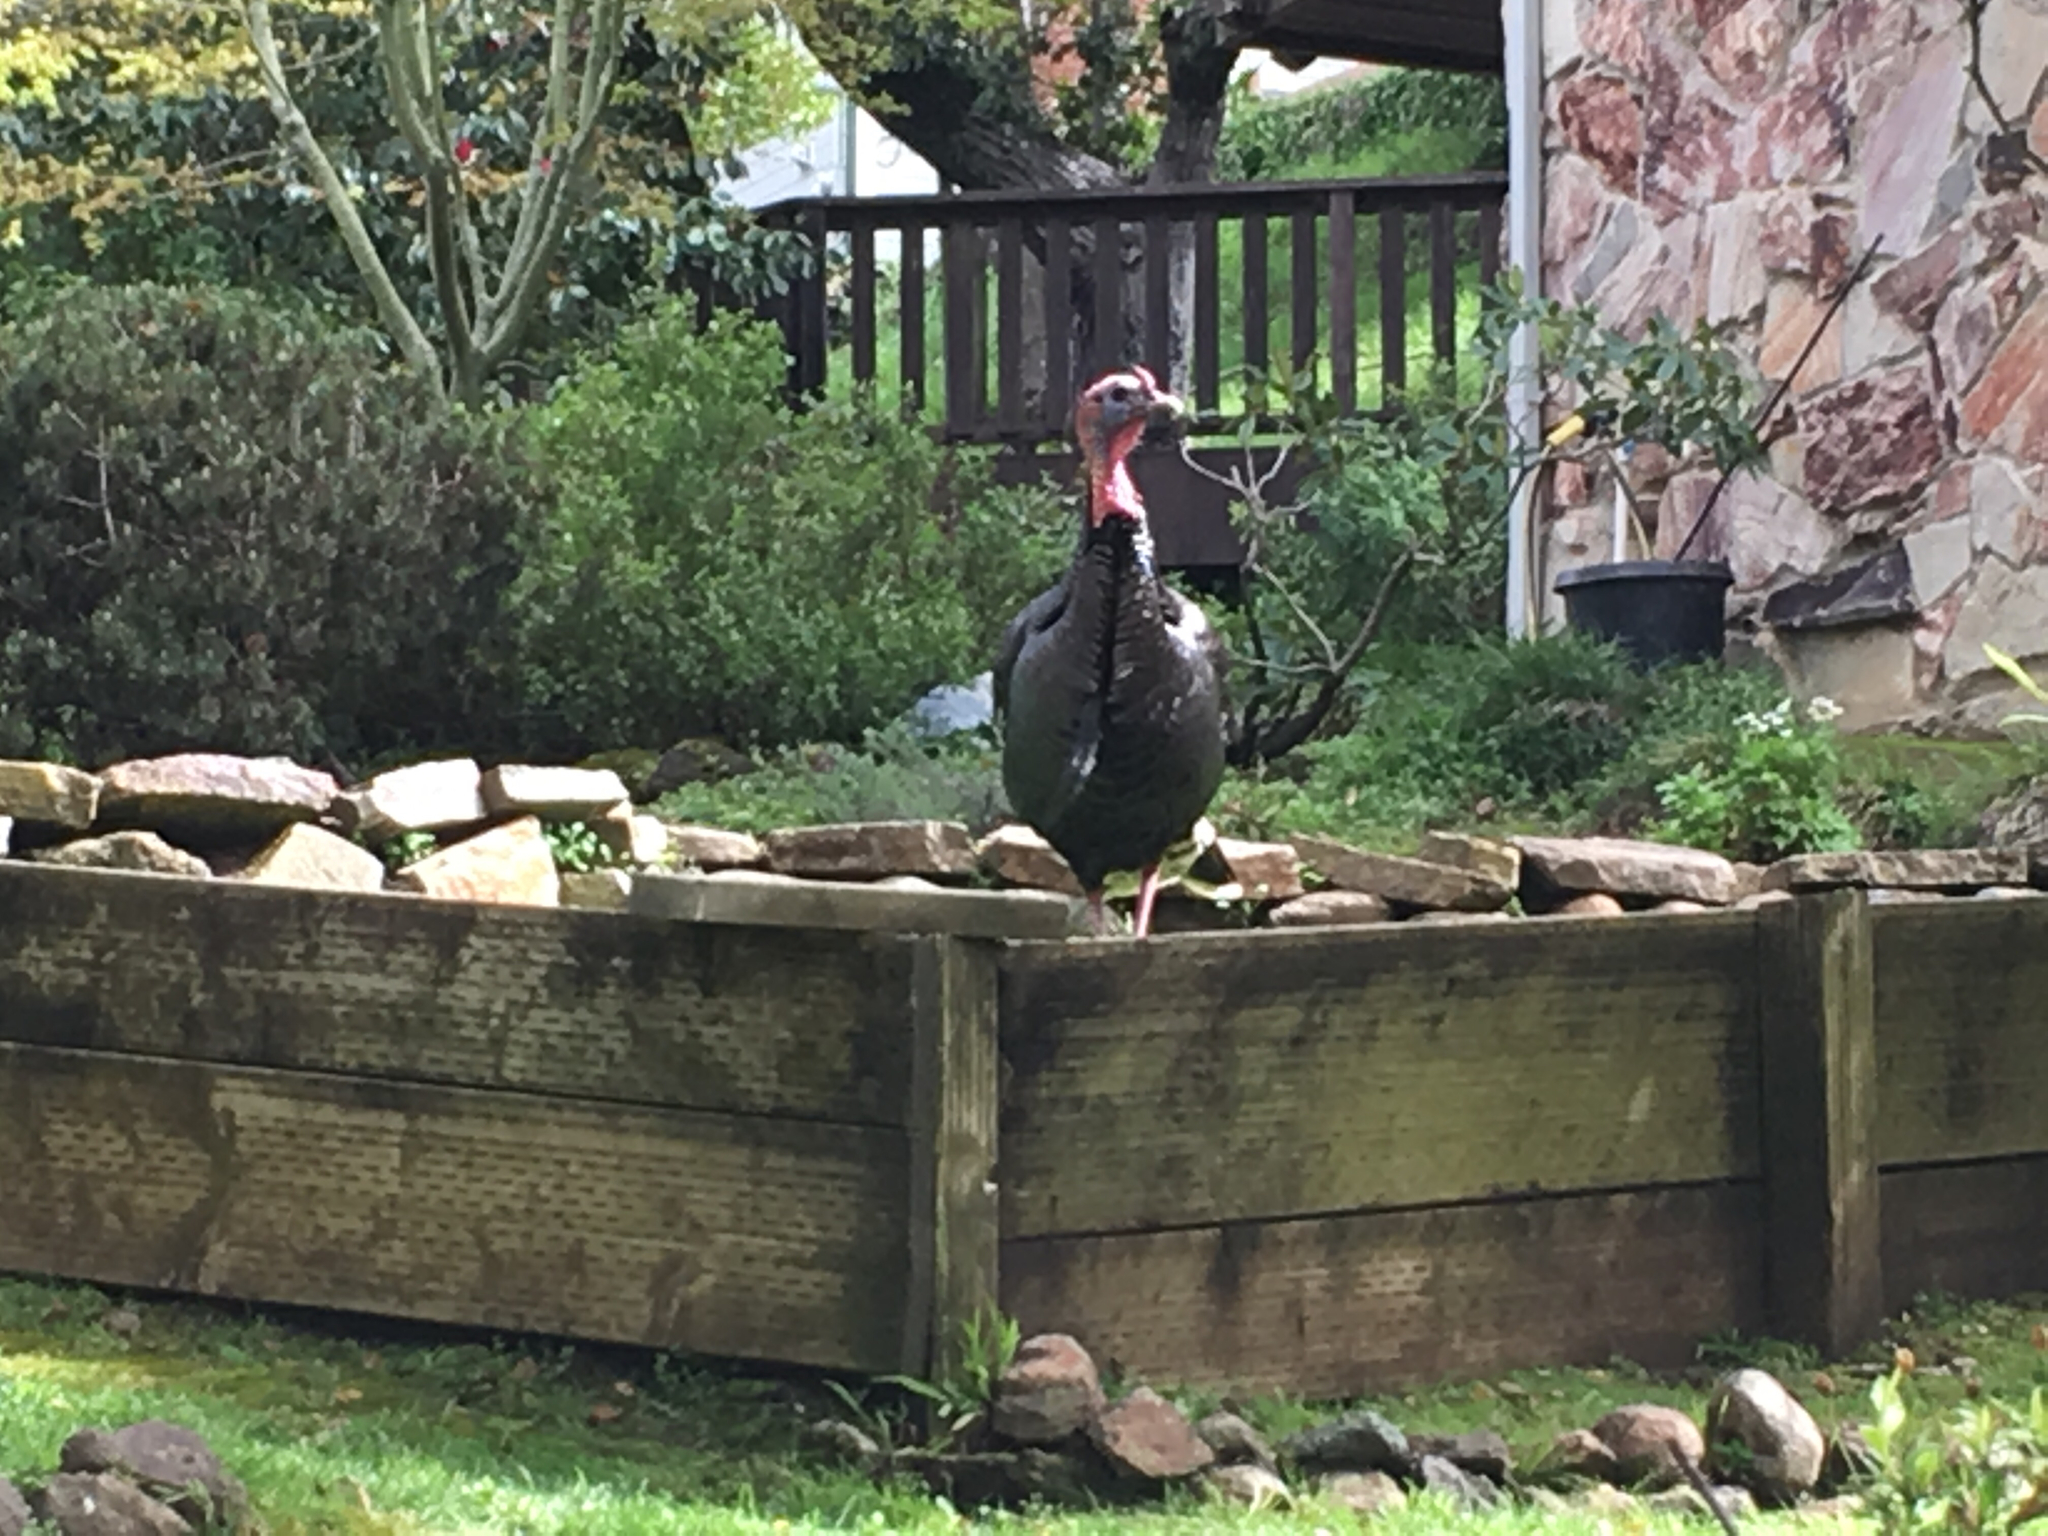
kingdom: Animalia
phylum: Chordata
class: Aves
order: Galliformes
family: Phasianidae
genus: Meleagris
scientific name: Meleagris gallopavo
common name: Wild turkey
